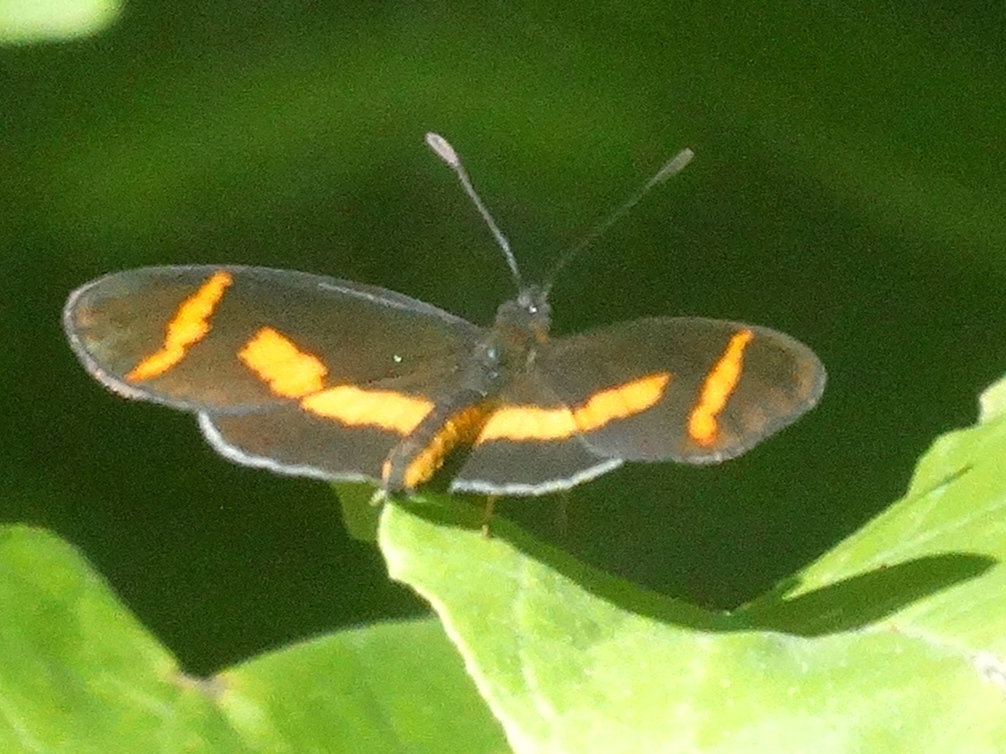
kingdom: Animalia
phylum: Arthropoda
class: Insecta
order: Lepidoptera
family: Nymphalidae
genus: Microtia
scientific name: Microtia elva
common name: Elf
